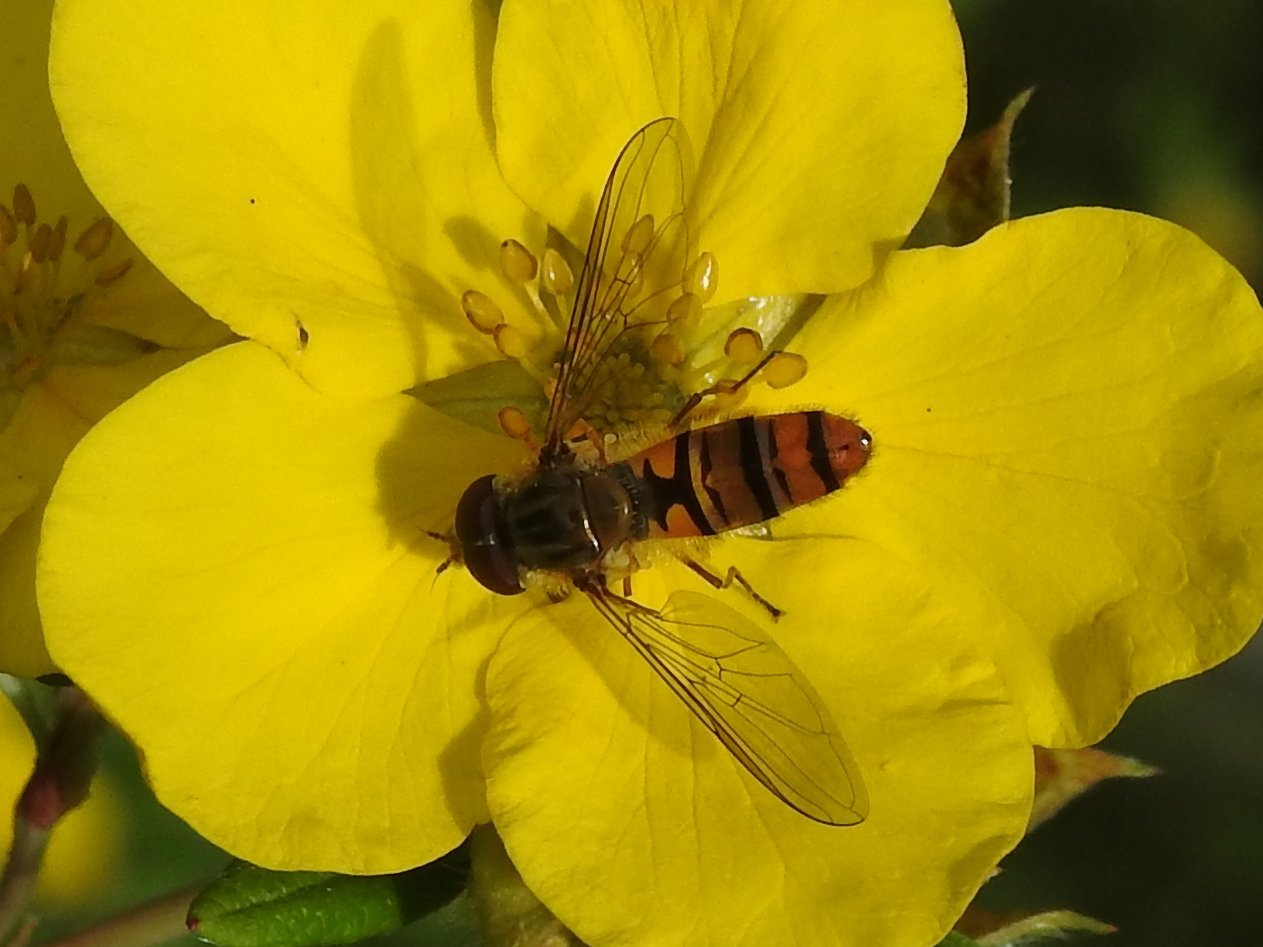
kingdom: Animalia
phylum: Arthropoda
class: Insecta
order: Diptera
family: Syrphidae
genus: Episyrphus
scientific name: Episyrphus balteatus
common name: Marmalade hoverfly
